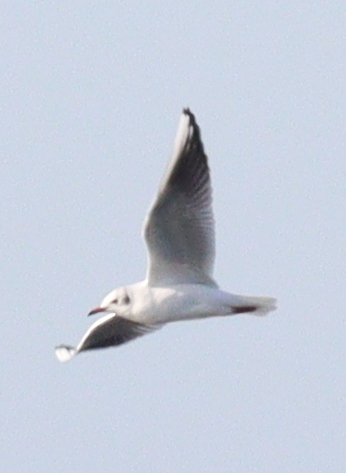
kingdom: Animalia
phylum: Chordata
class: Aves
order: Charadriiformes
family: Laridae
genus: Chroicocephalus
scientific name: Chroicocephalus ridibundus
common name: Black-headed gull
